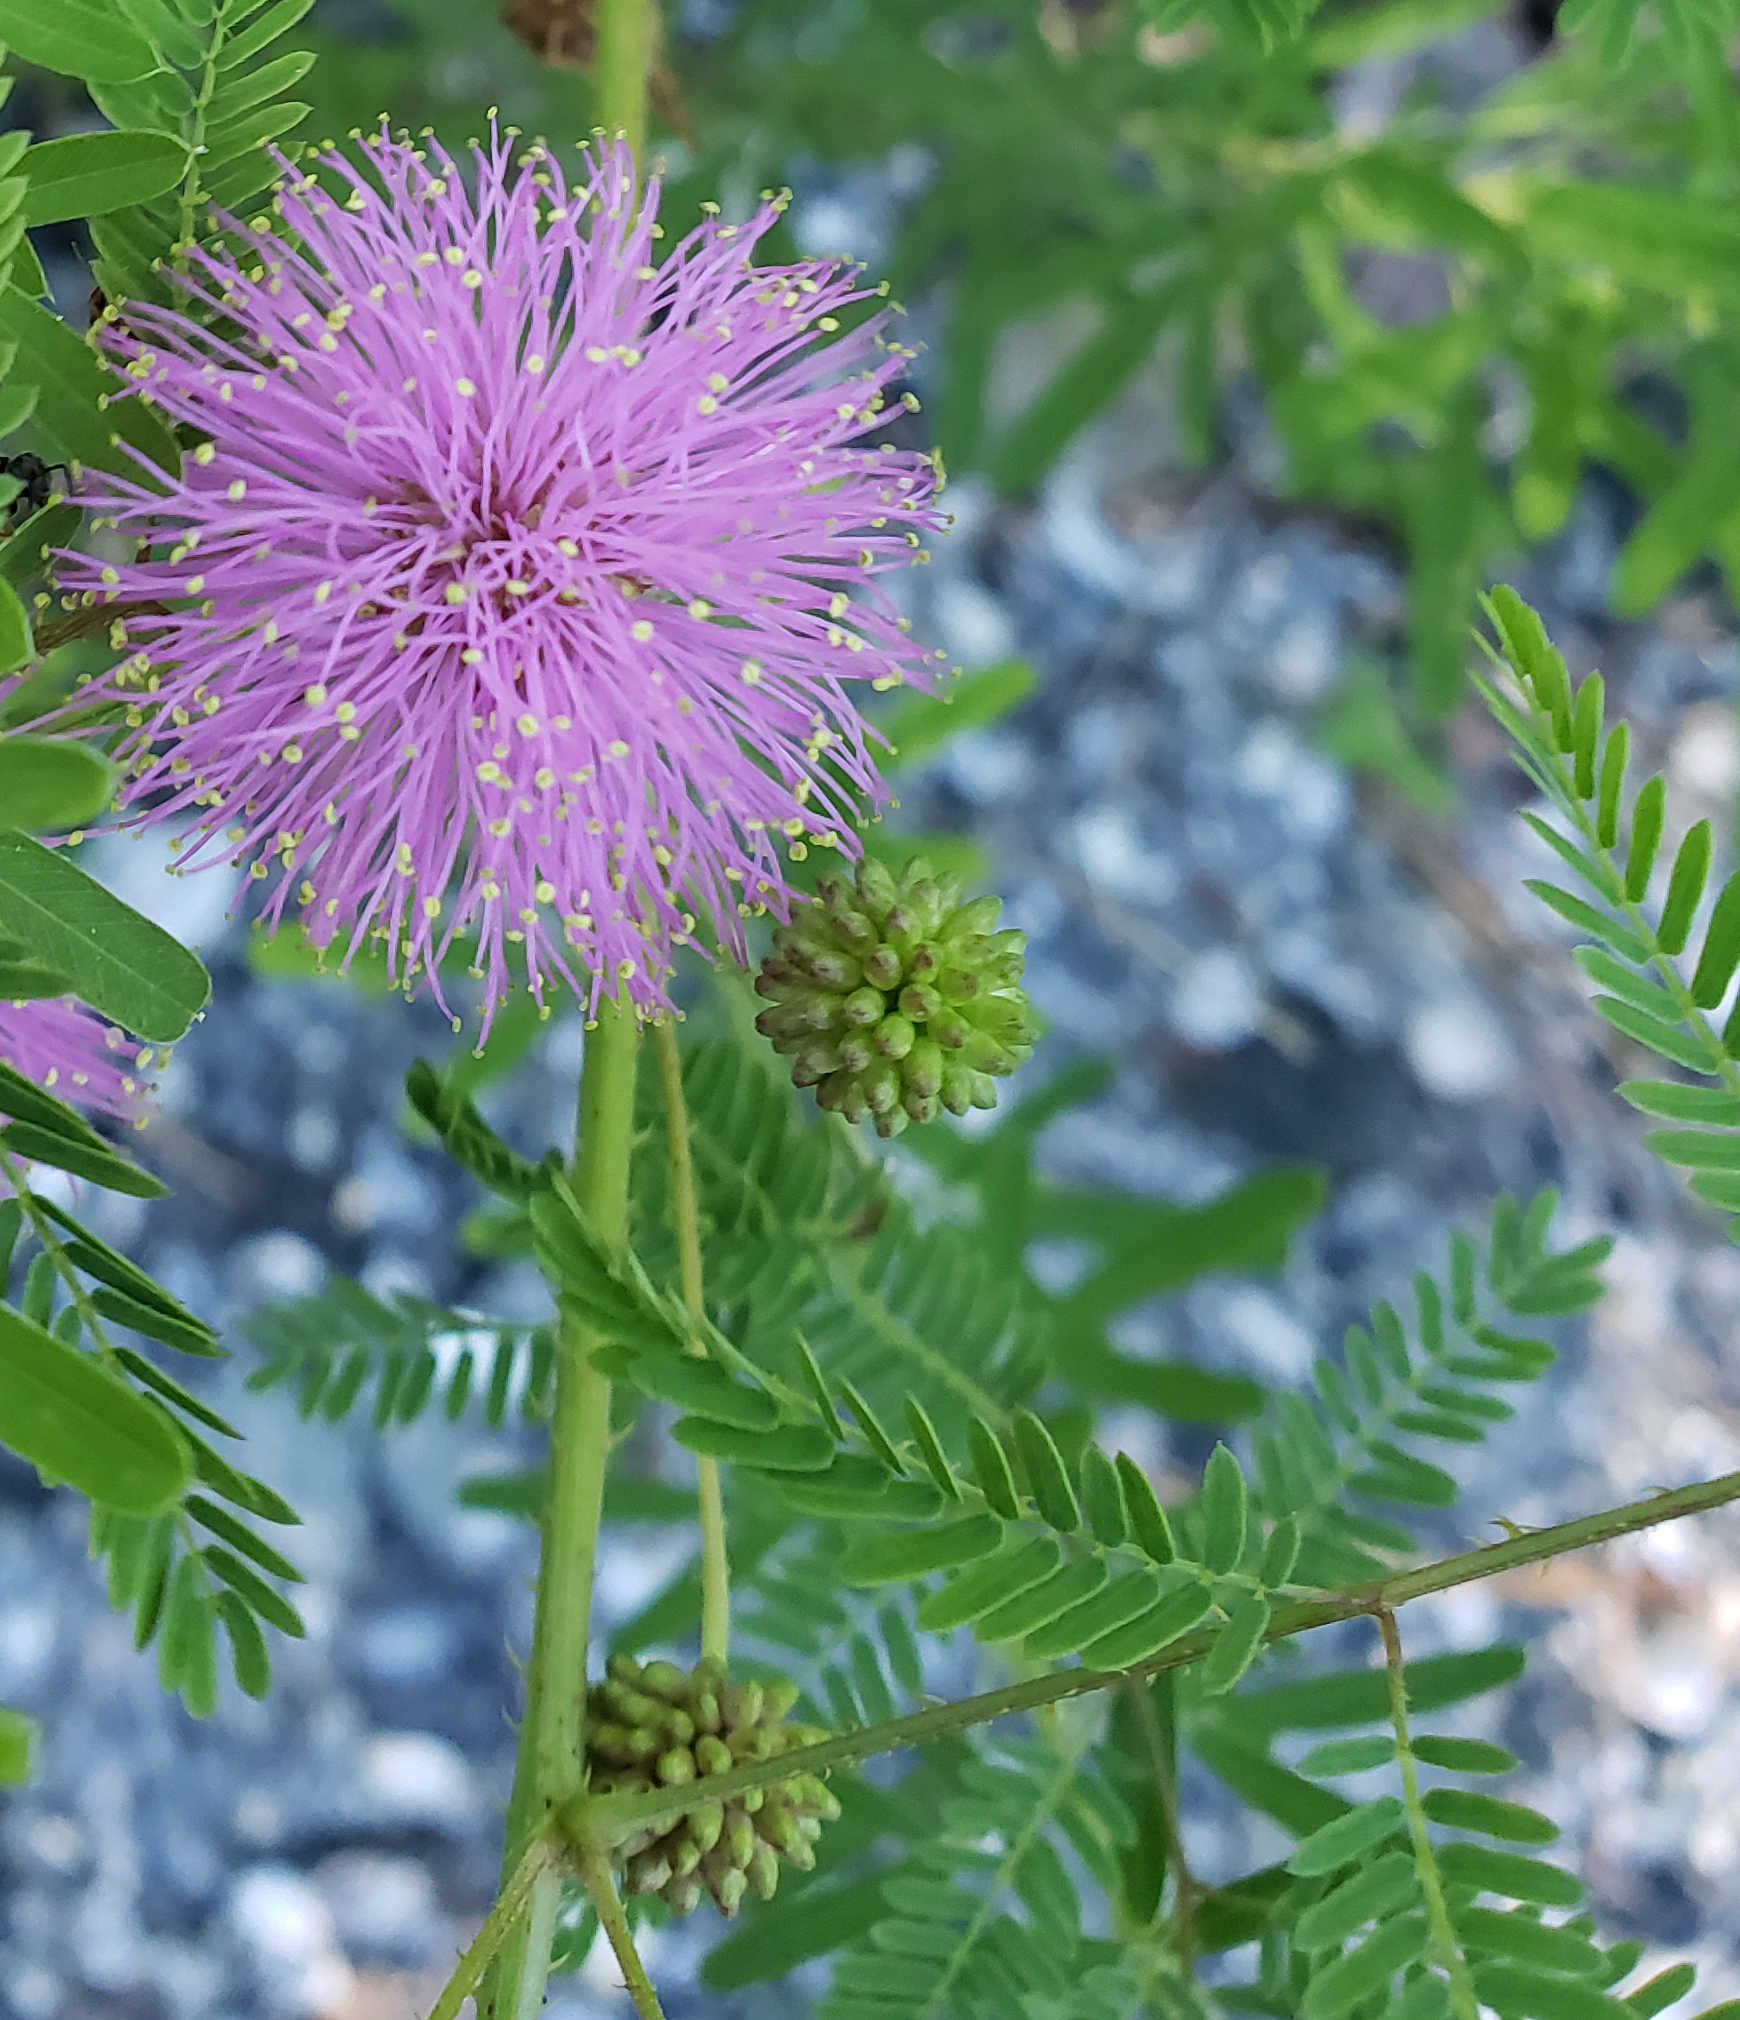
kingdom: Plantae
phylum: Tracheophyta
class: Magnoliopsida
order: Fabales
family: Fabaceae
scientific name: Fabaceae
